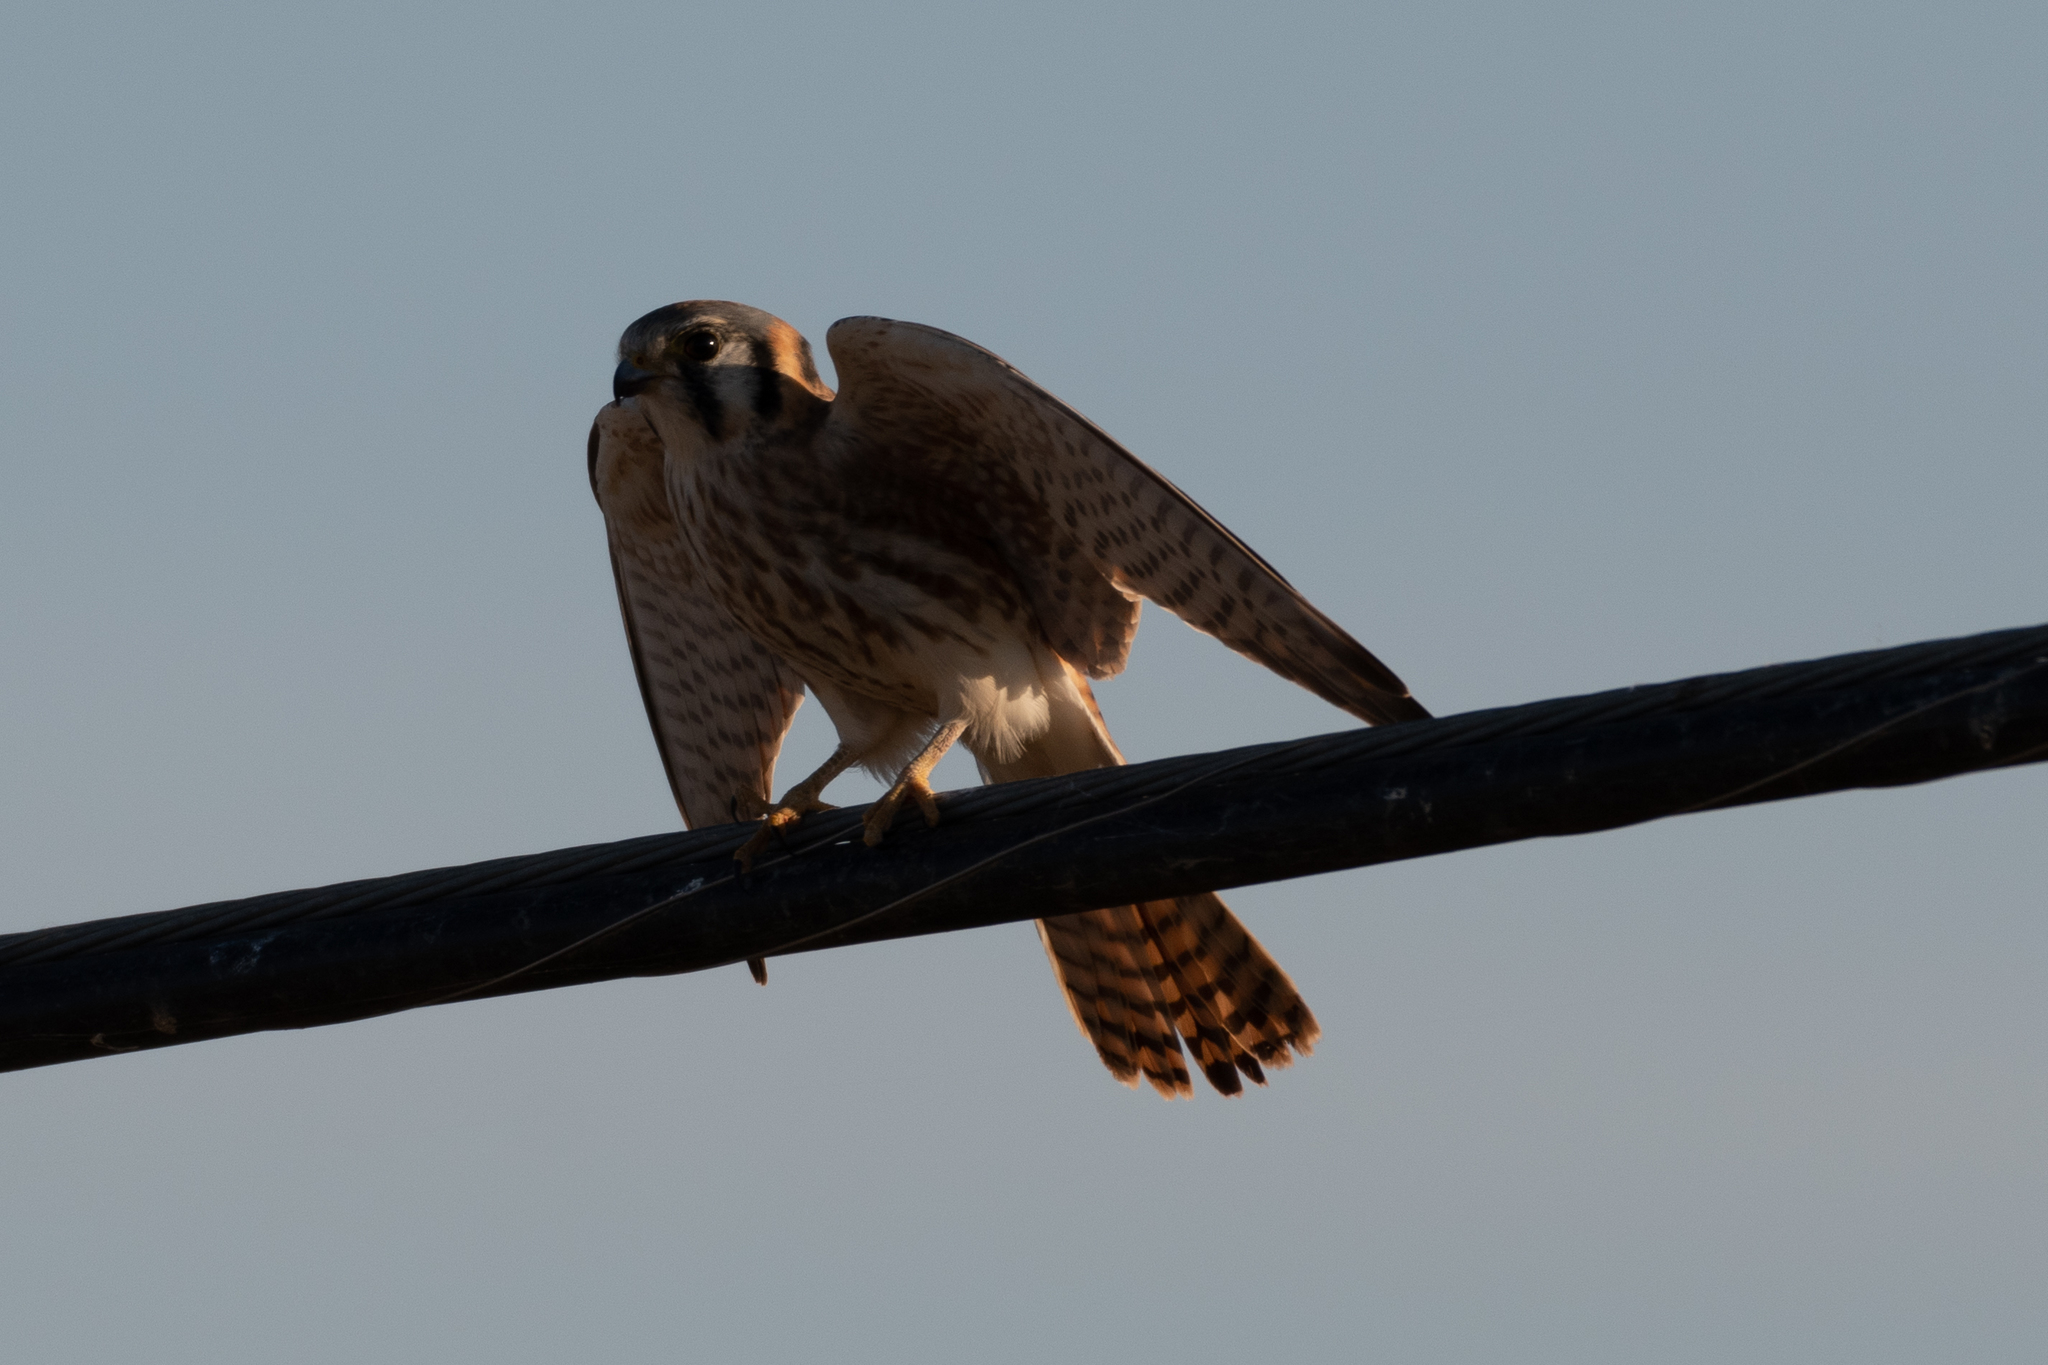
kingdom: Animalia
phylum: Chordata
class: Aves
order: Falconiformes
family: Falconidae
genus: Falco
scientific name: Falco sparverius
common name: American kestrel
